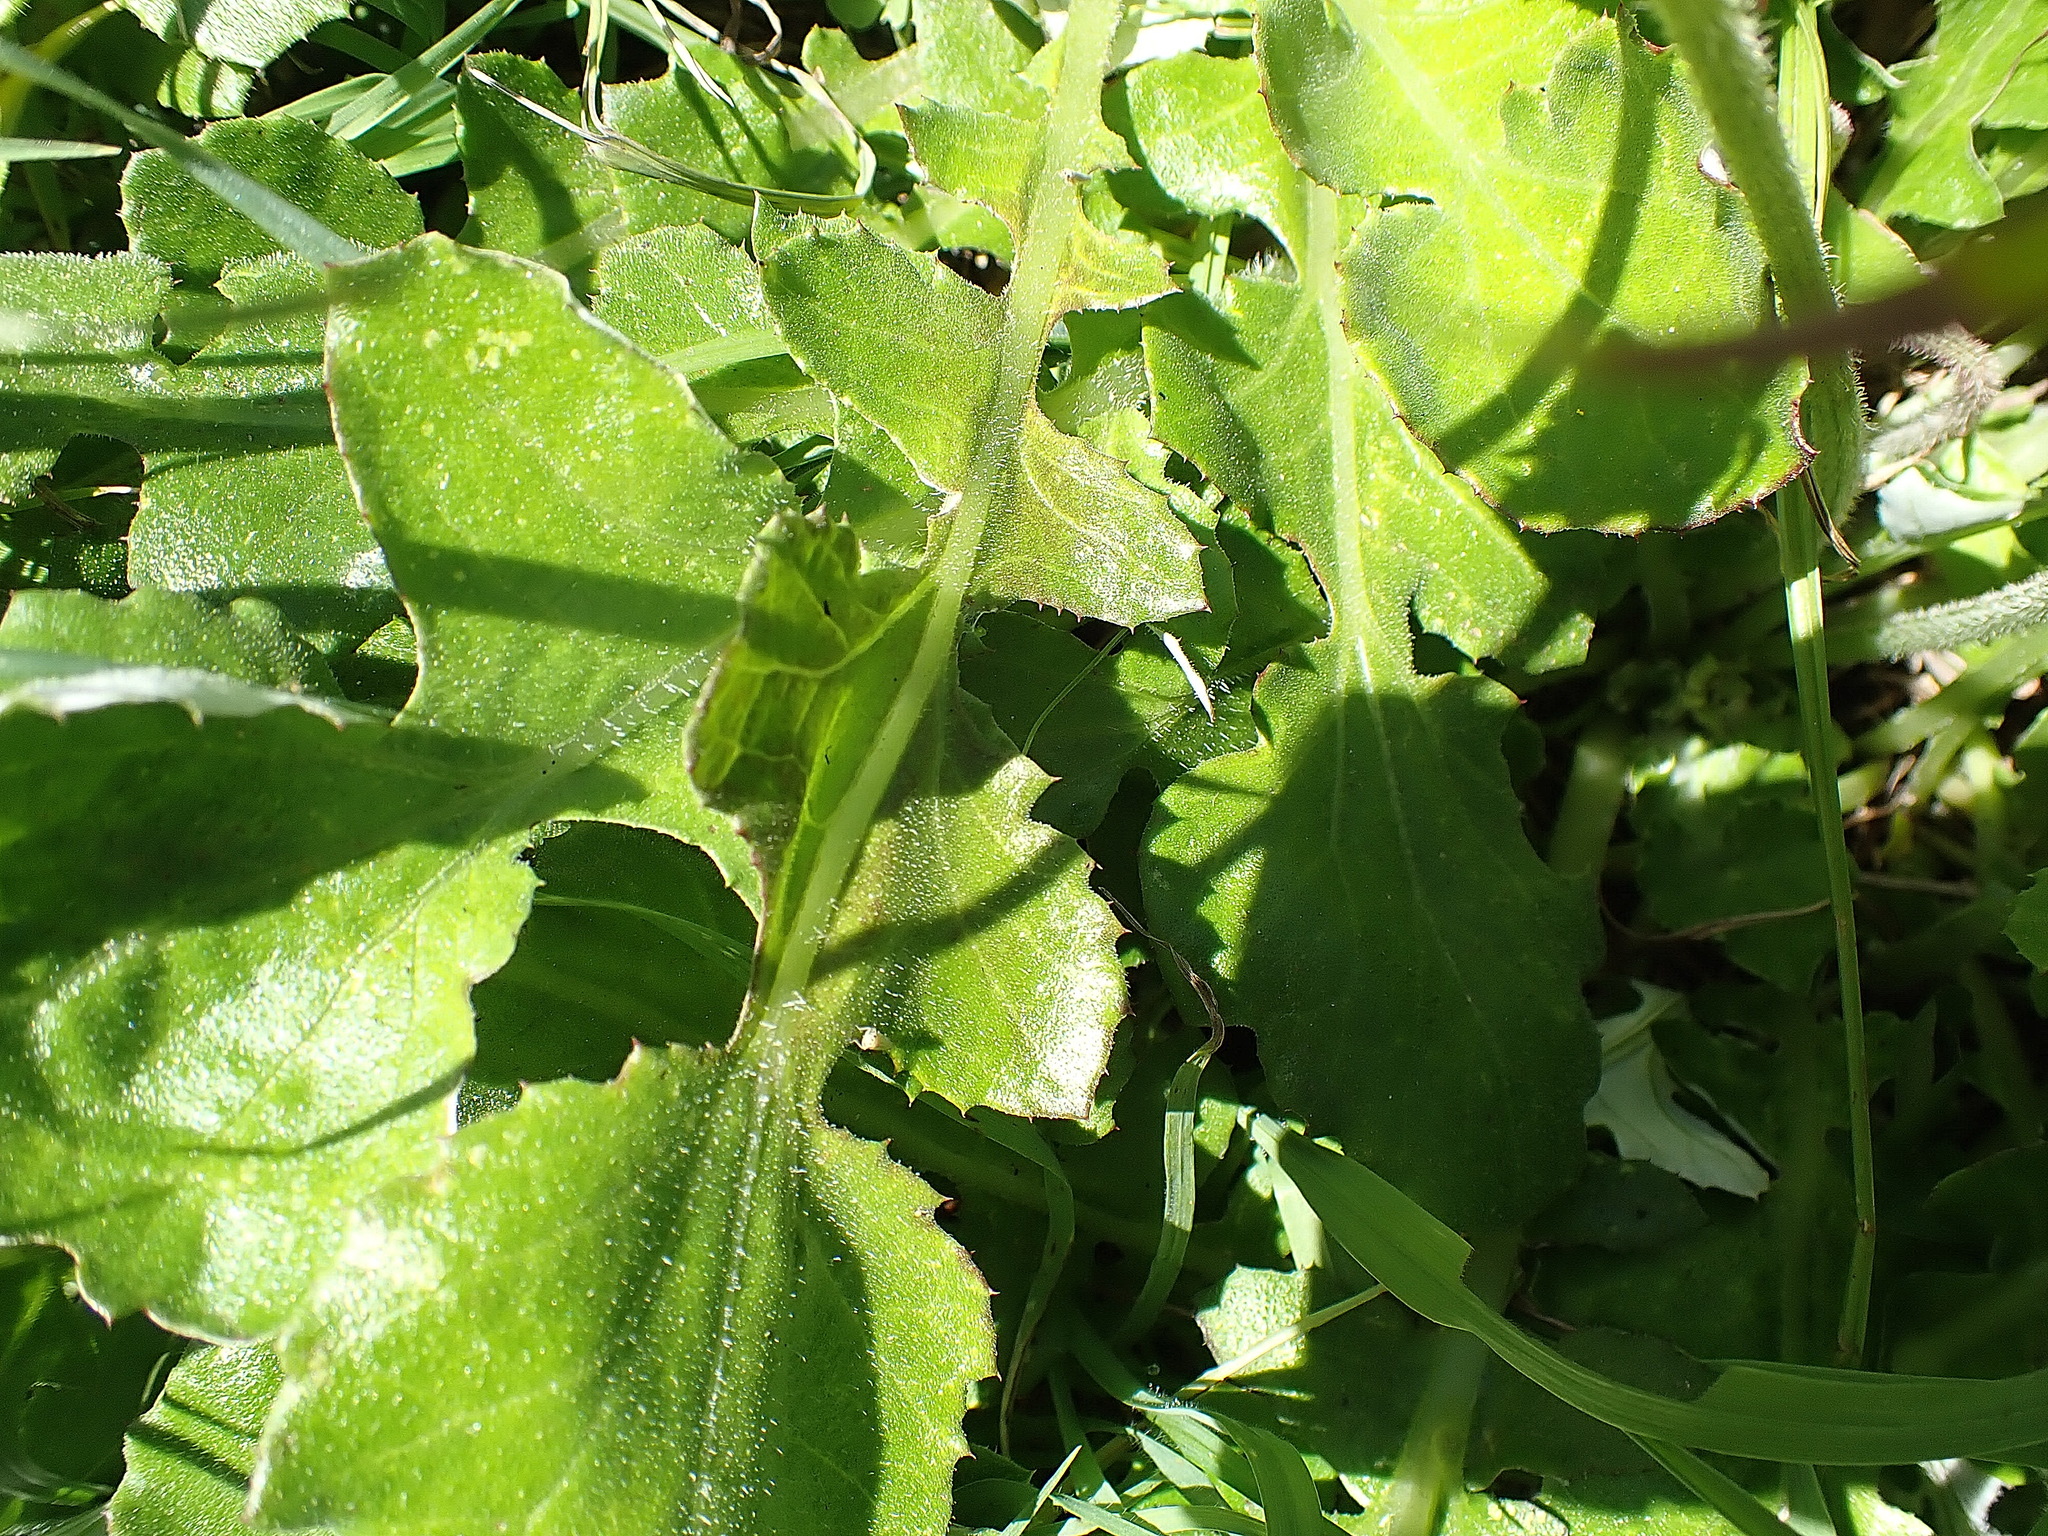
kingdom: Plantae
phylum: Tracheophyta
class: Magnoliopsida
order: Asterales
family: Asteraceae
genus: Arctotheca
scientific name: Arctotheca prostrata
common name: Capeweed
